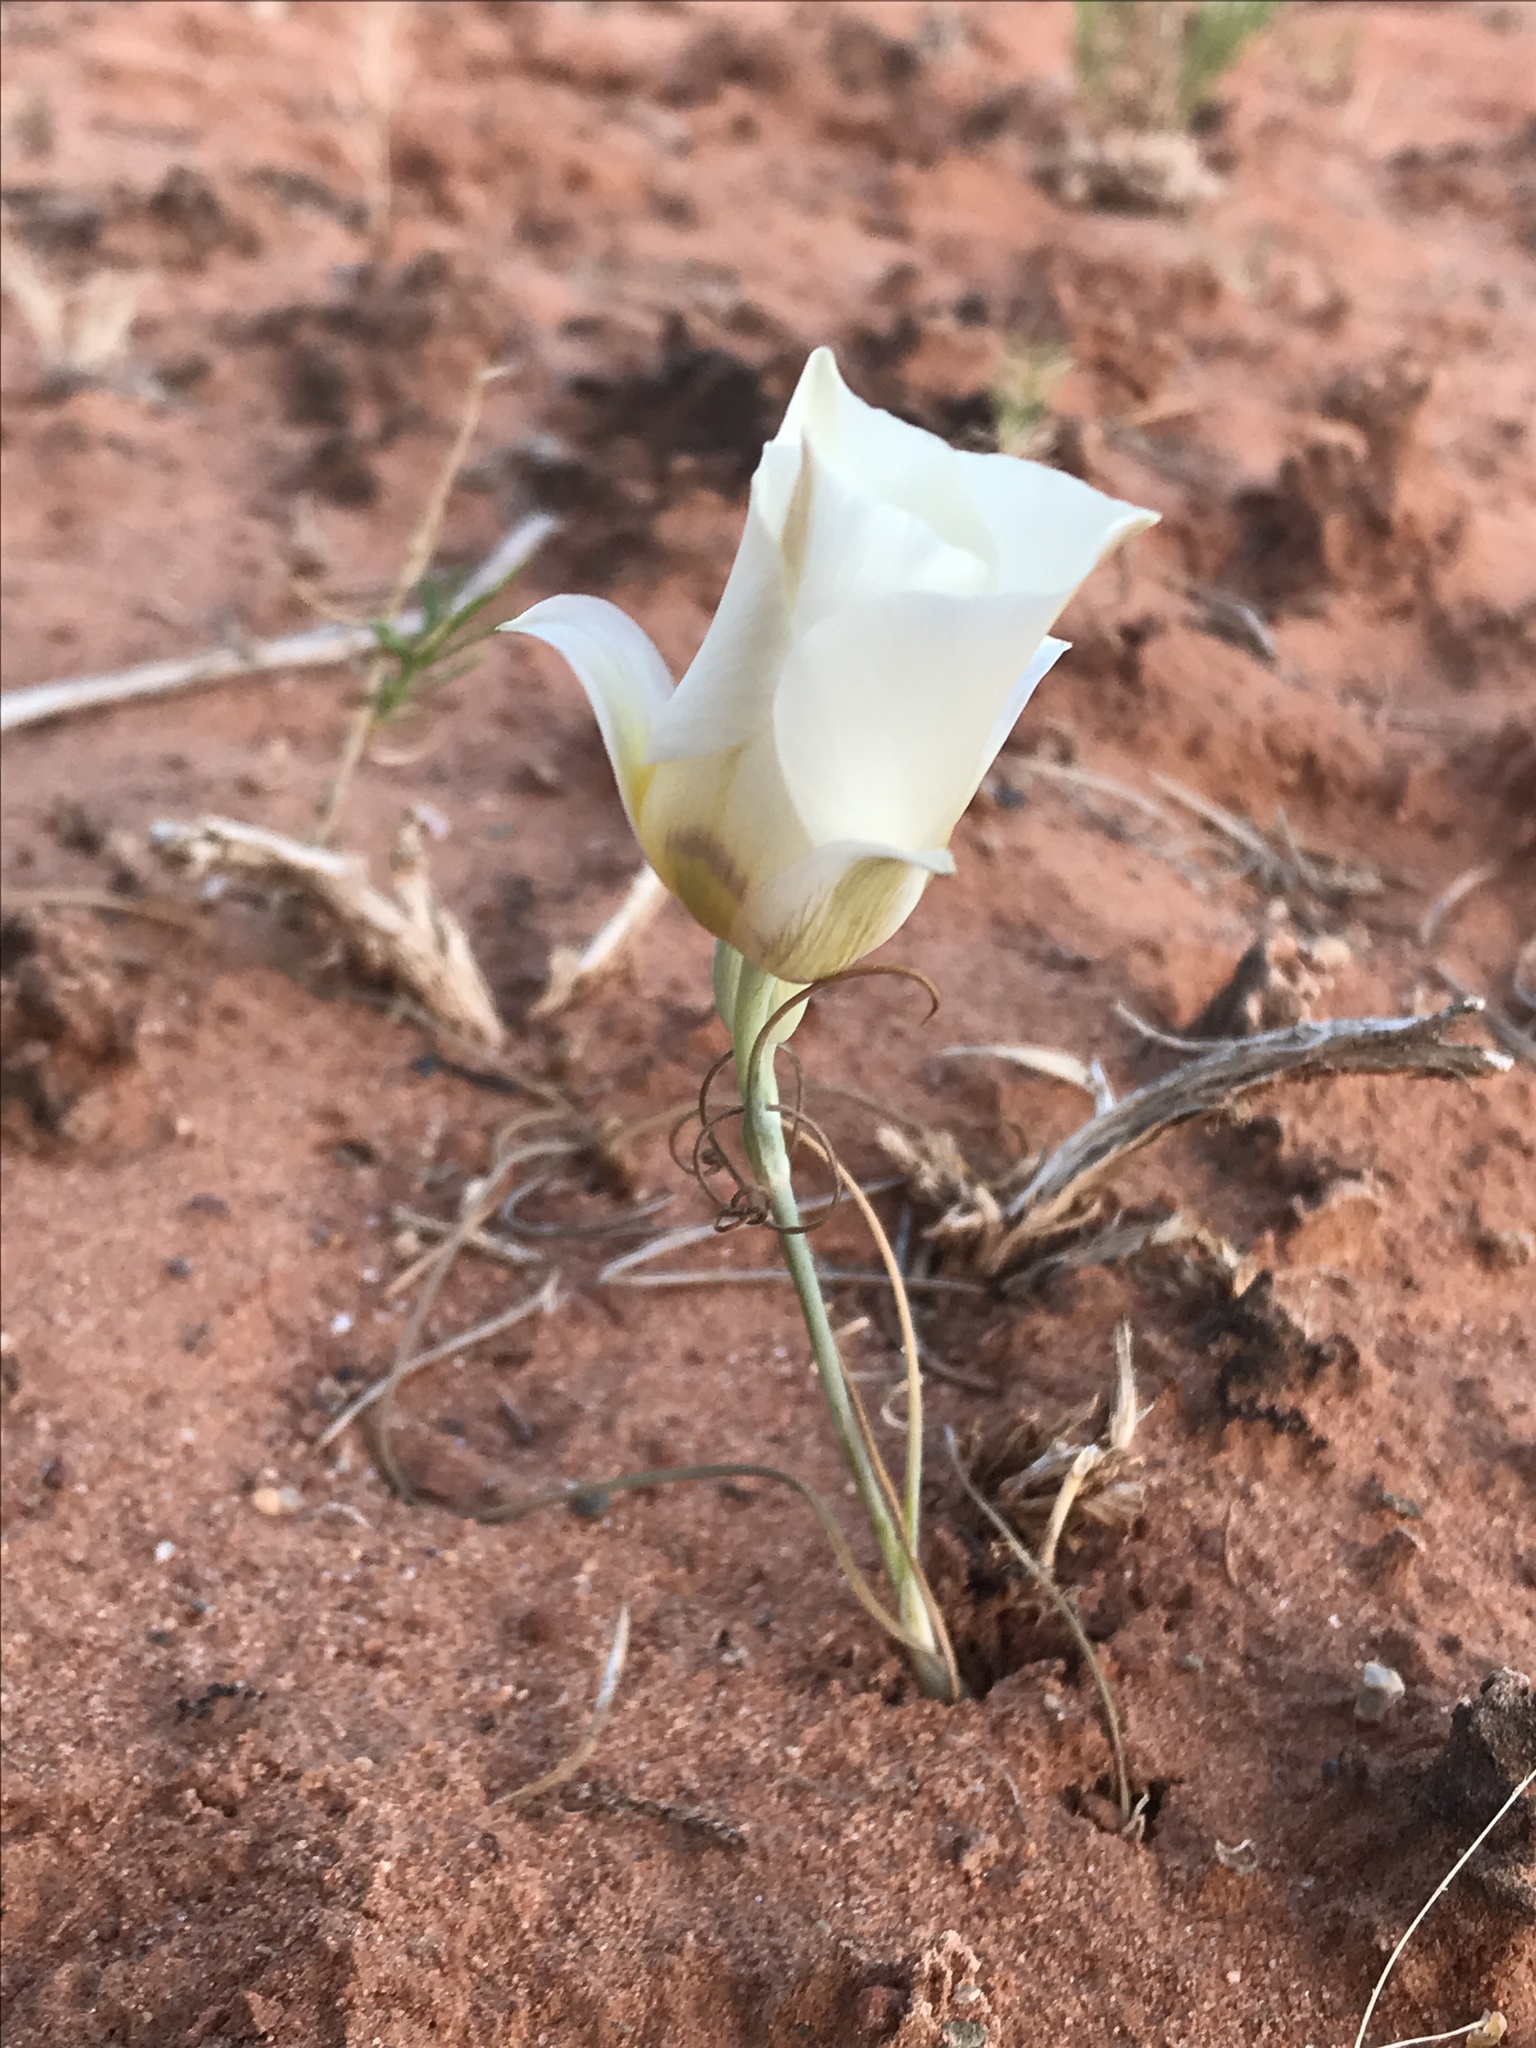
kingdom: Plantae
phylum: Tracheophyta
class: Liliopsida
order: Liliales
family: Liliaceae
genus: Calochortus
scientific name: Calochortus nuttallii
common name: Sego-lily
